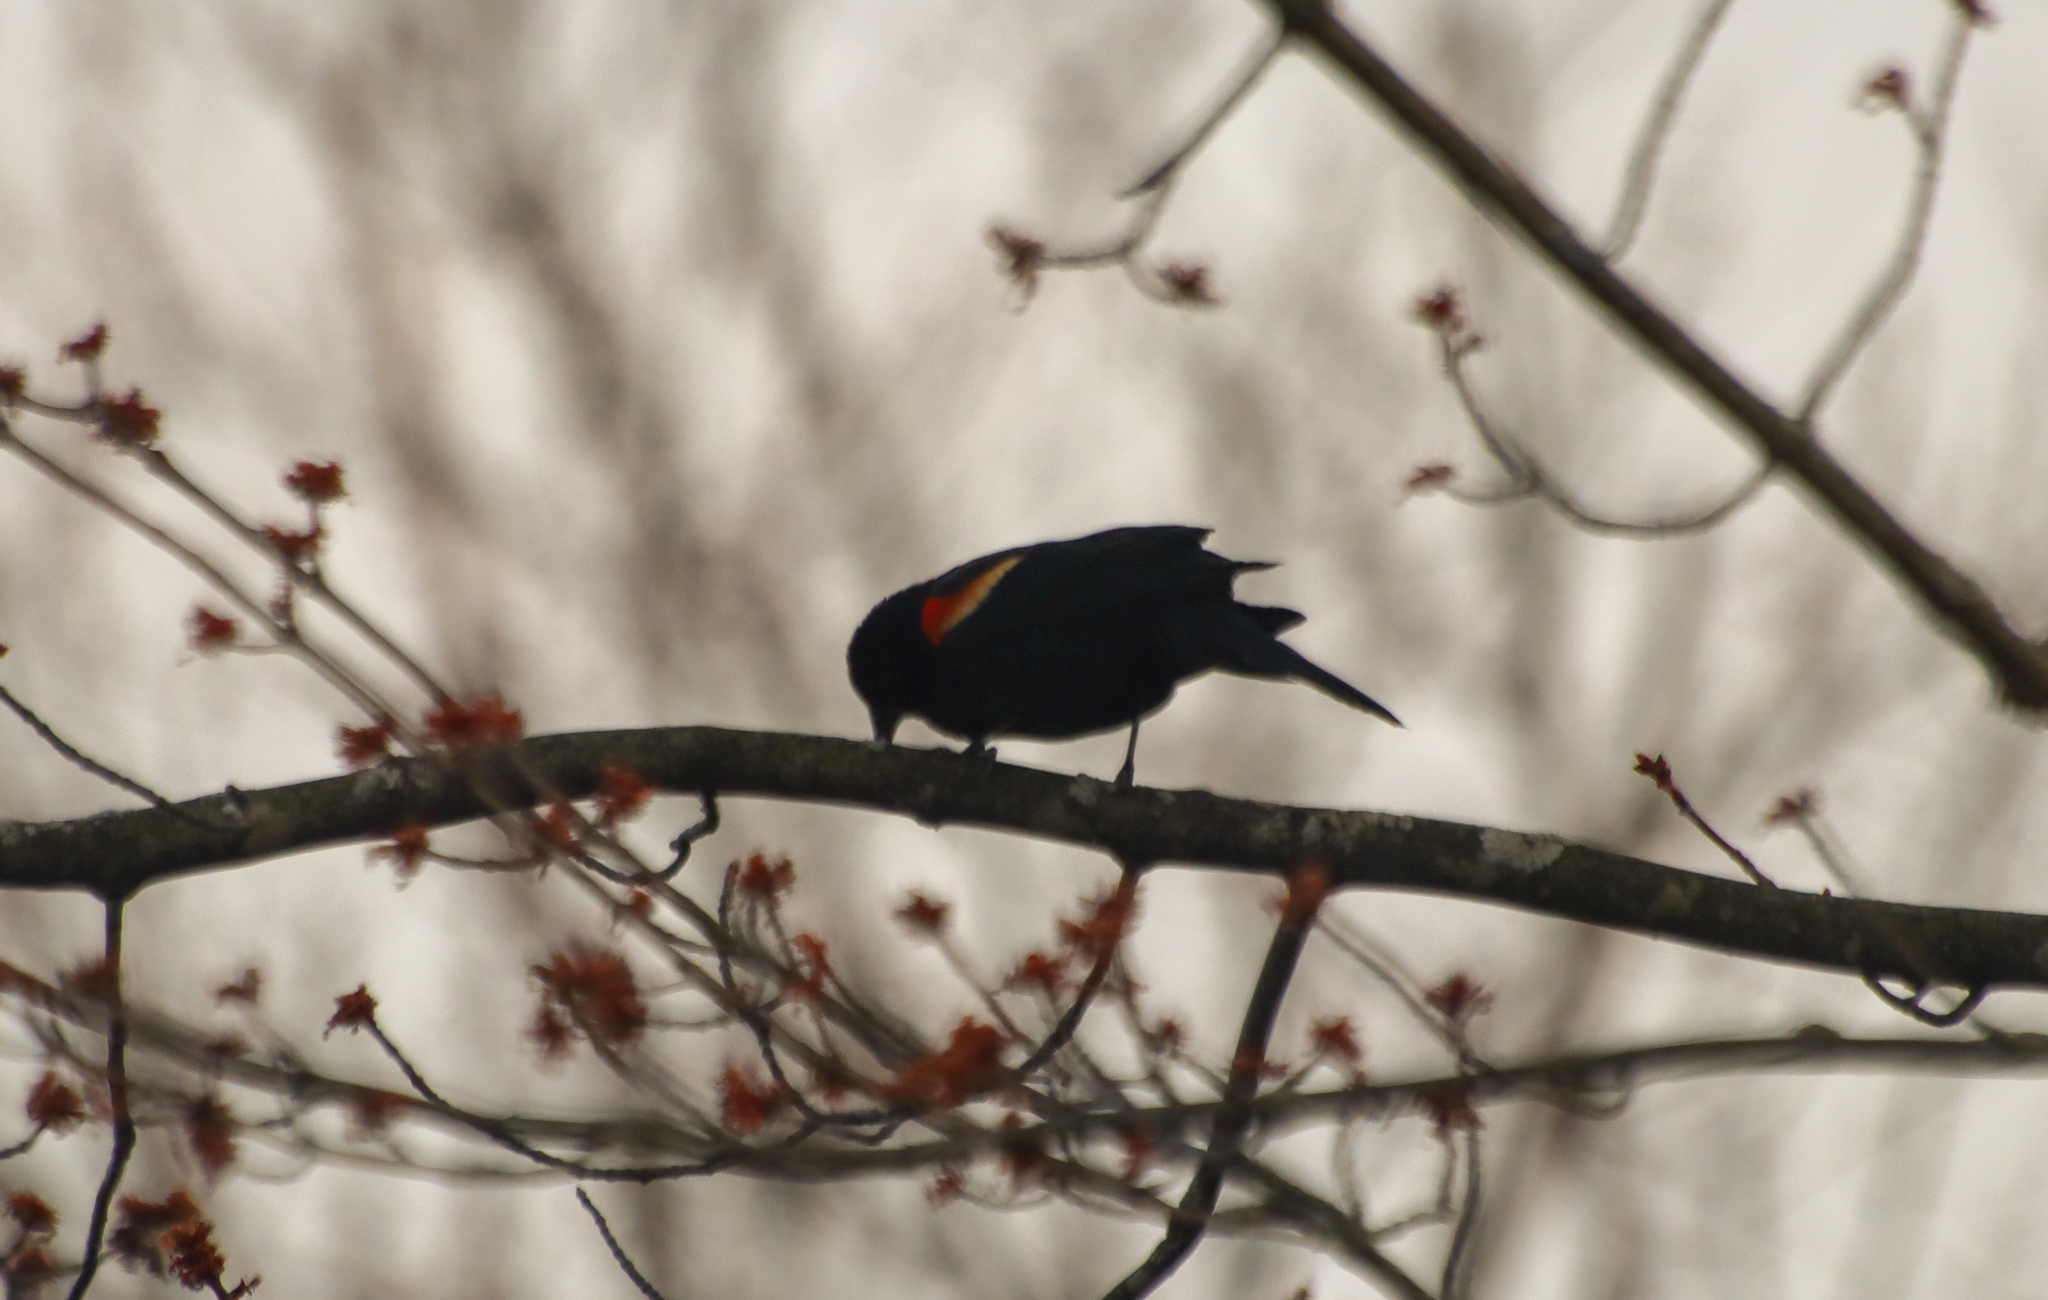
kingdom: Animalia
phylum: Chordata
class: Aves
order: Passeriformes
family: Icteridae
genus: Agelaius
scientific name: Agelaius phoeniceus
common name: Red-winged blackbird
